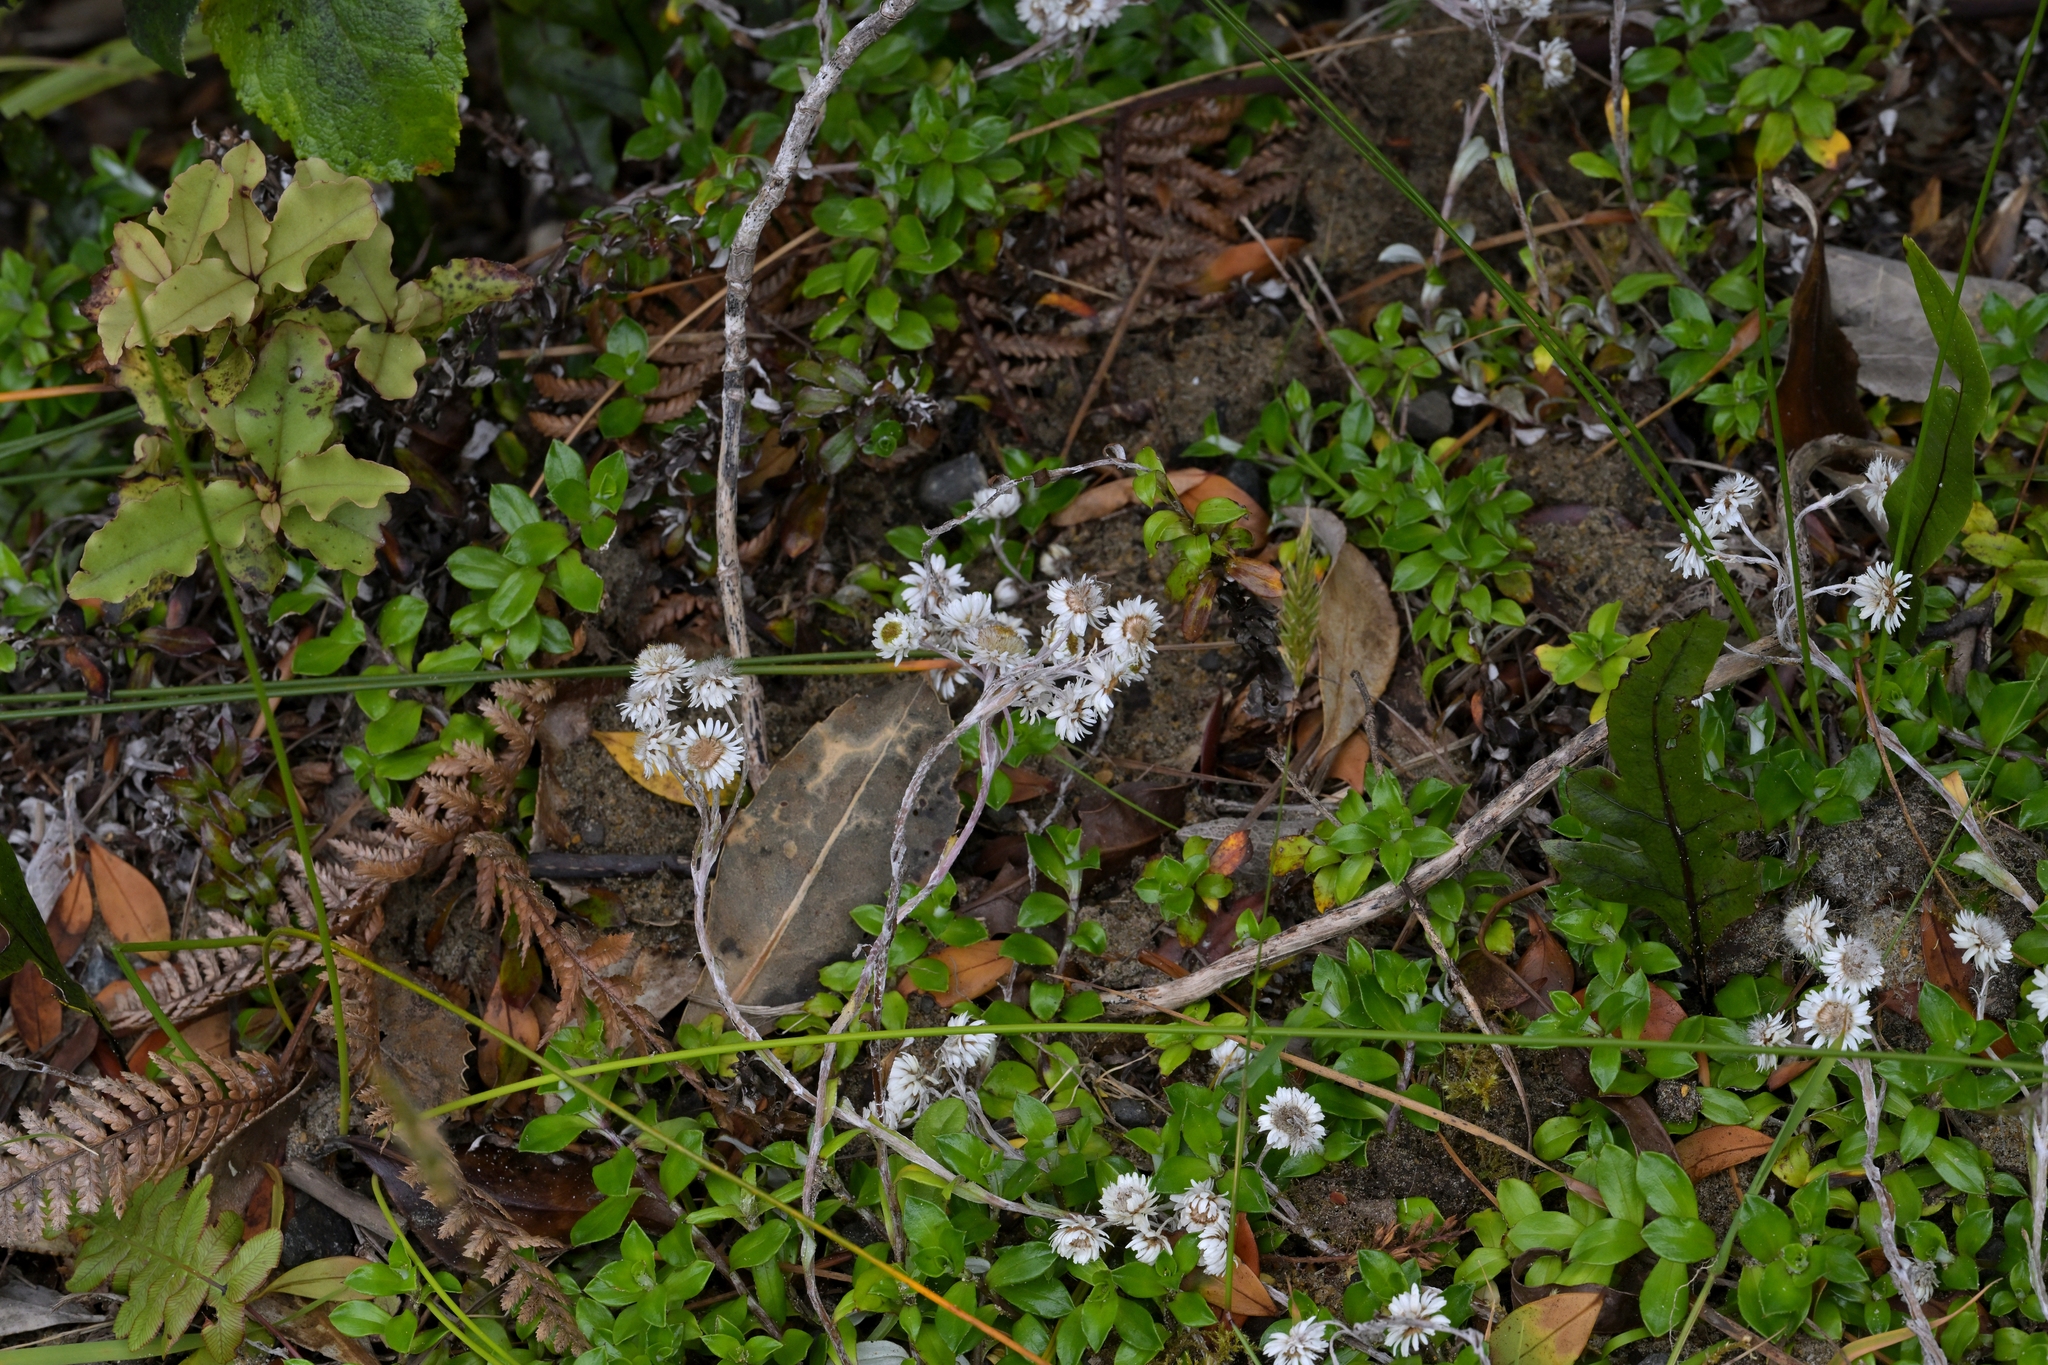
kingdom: Plantae
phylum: Tracheophyta
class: Magnoliopsida
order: Asterales
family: Asteraceae
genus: Anaphalioides
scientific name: Anaphalioides hookeri
